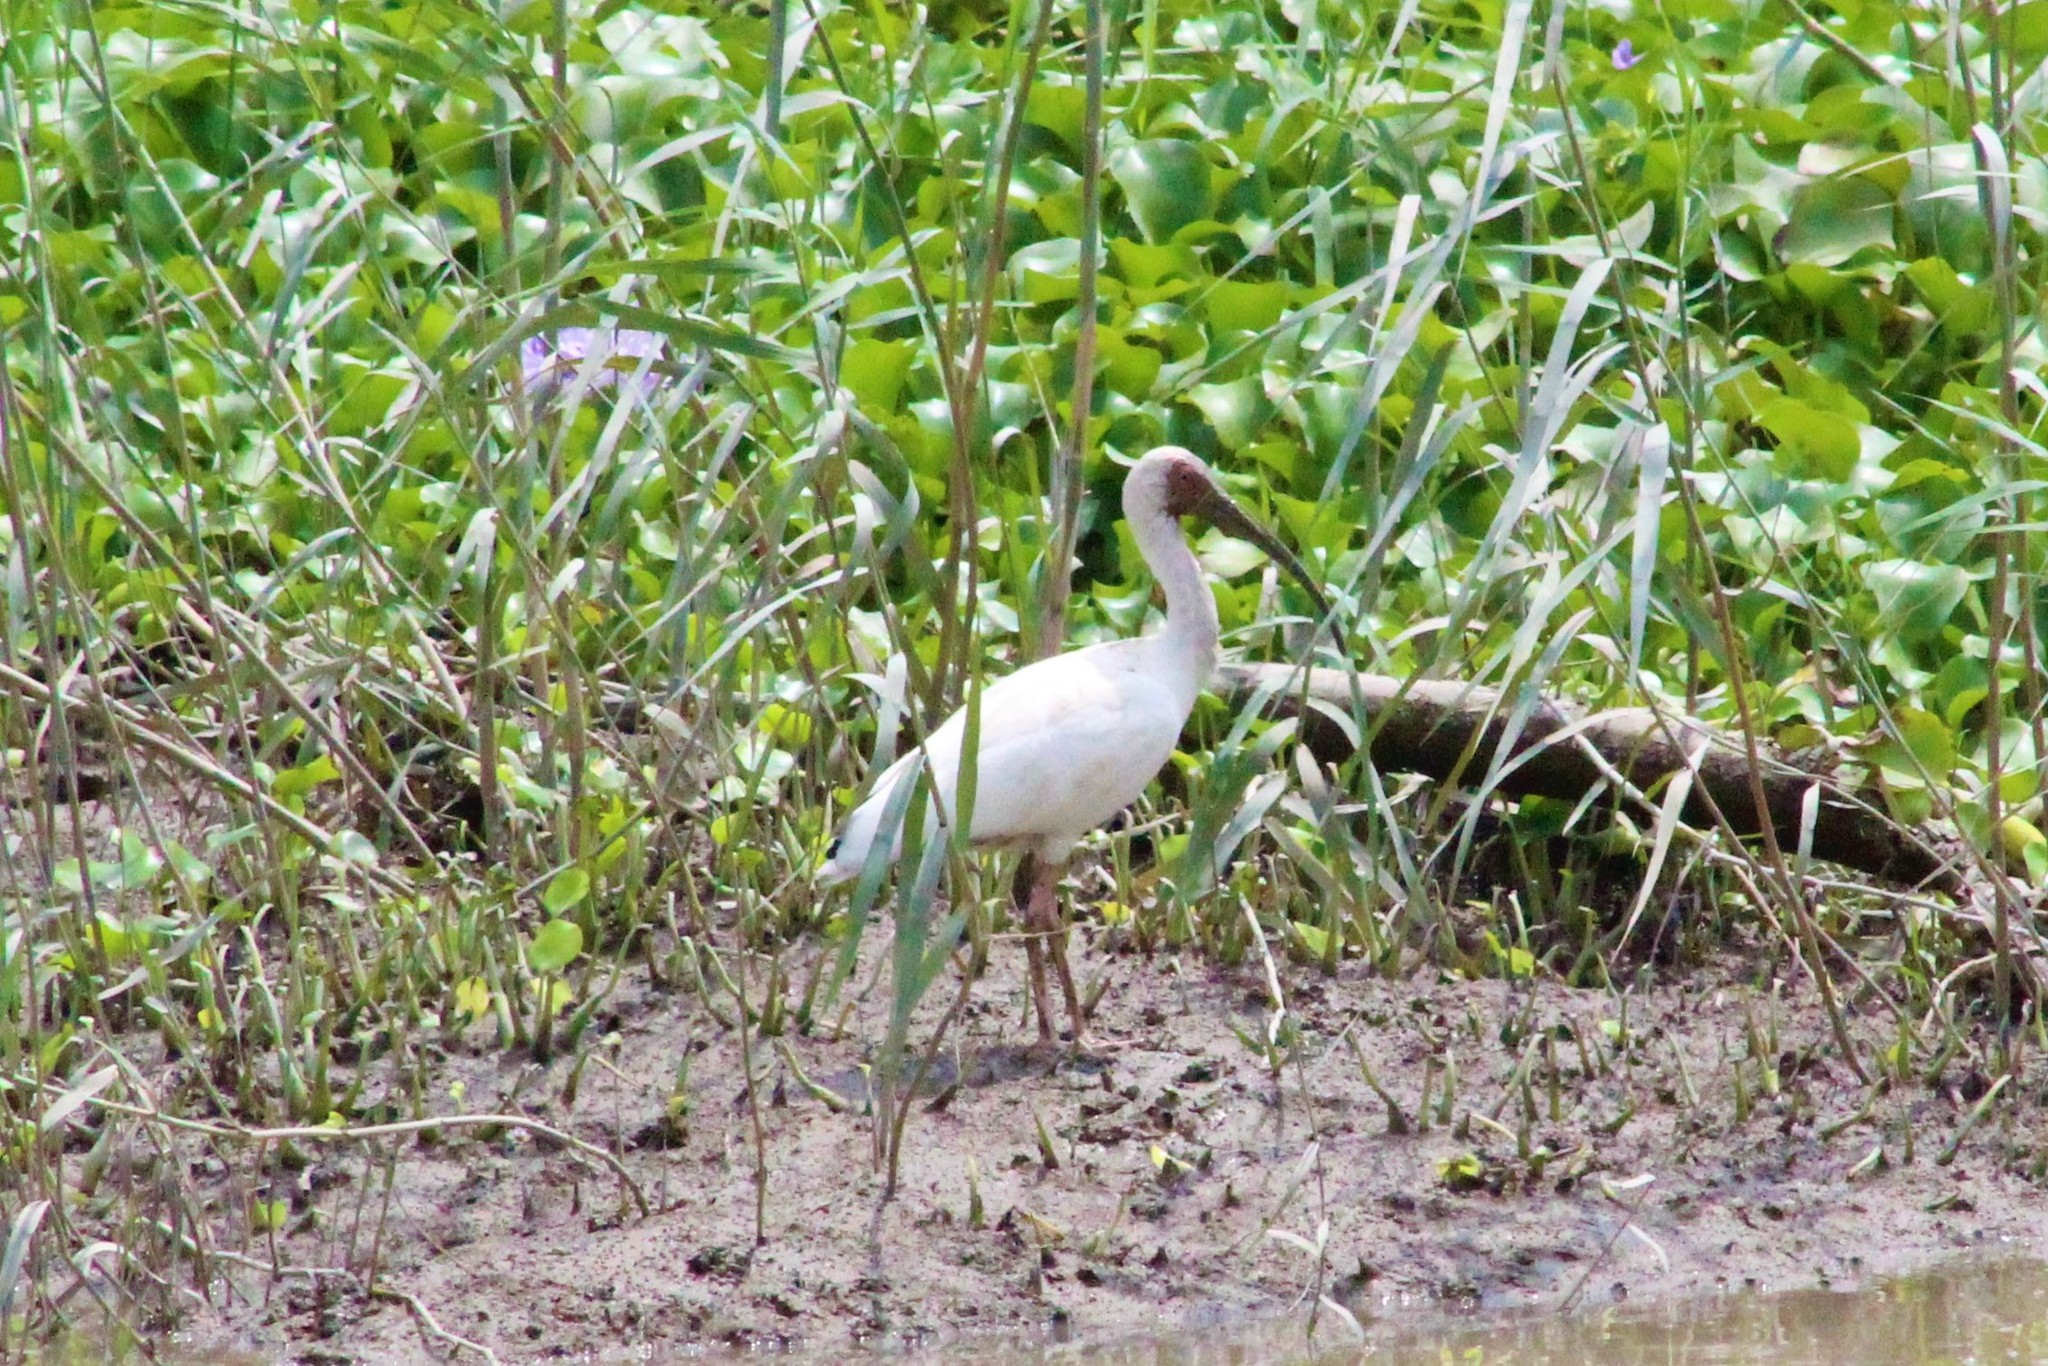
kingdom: Animalia
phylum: Chordata
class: Aves
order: Pelecaniformes
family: Threskiornithidae
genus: Eudocimus
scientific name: Eudocimus albus
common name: White ibis
